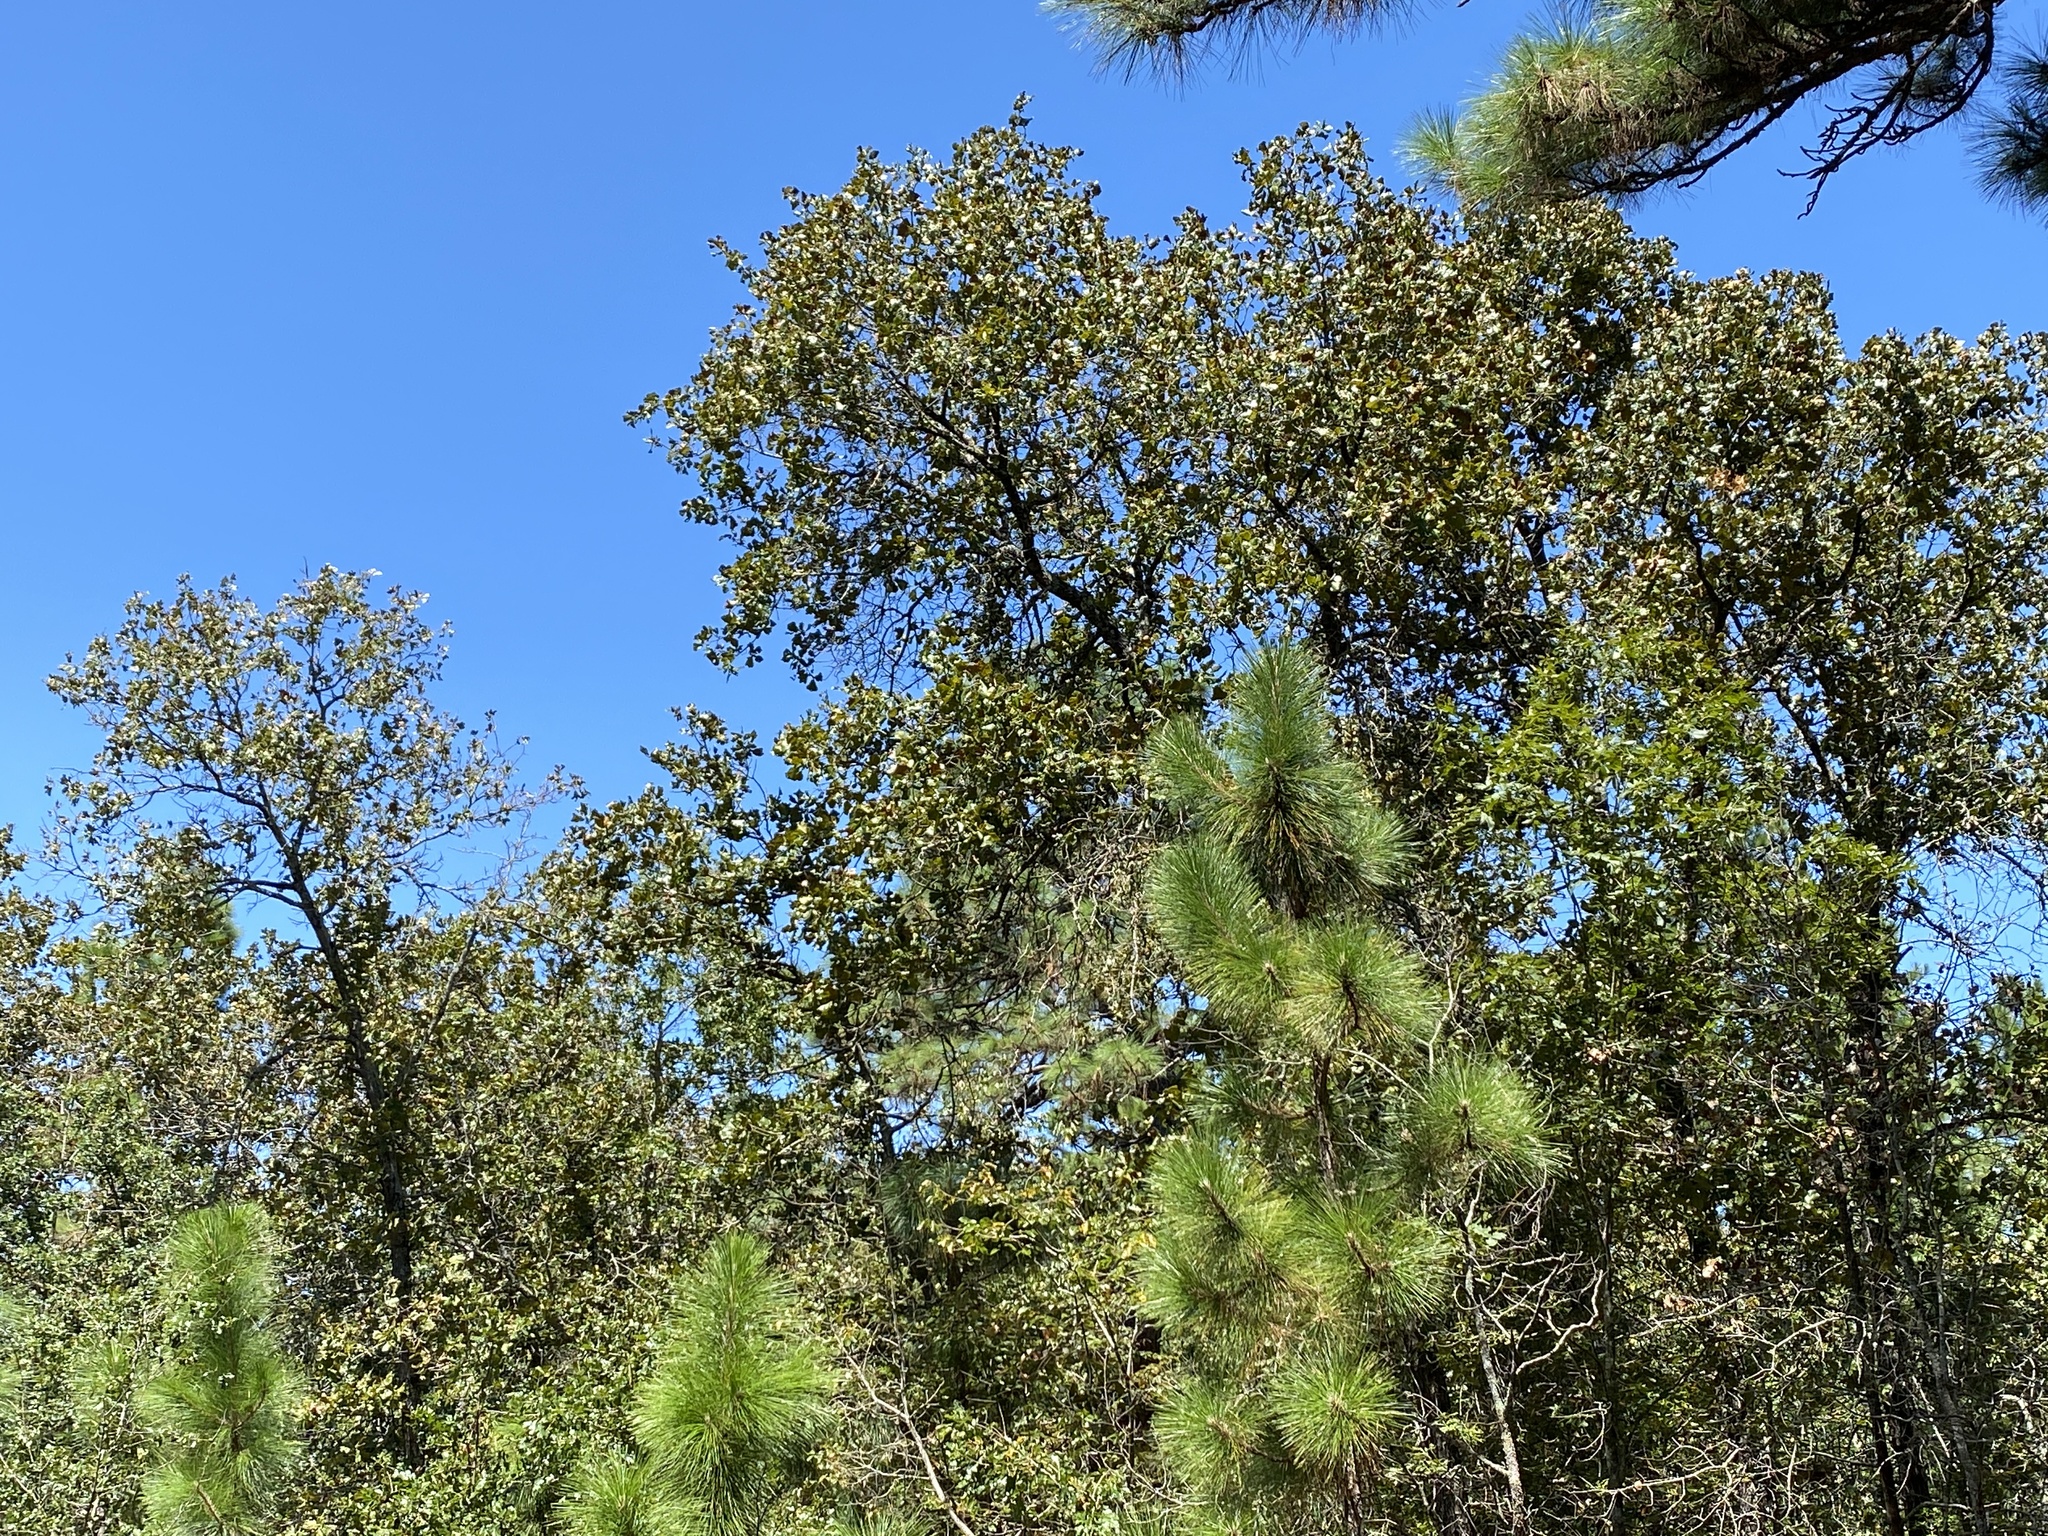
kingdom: Plantae
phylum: Tracheophyta
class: Magnoliopsida
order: Fagales
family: Fagaceae
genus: Quercus
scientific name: Quercus marilandica
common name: Blackjack oak
